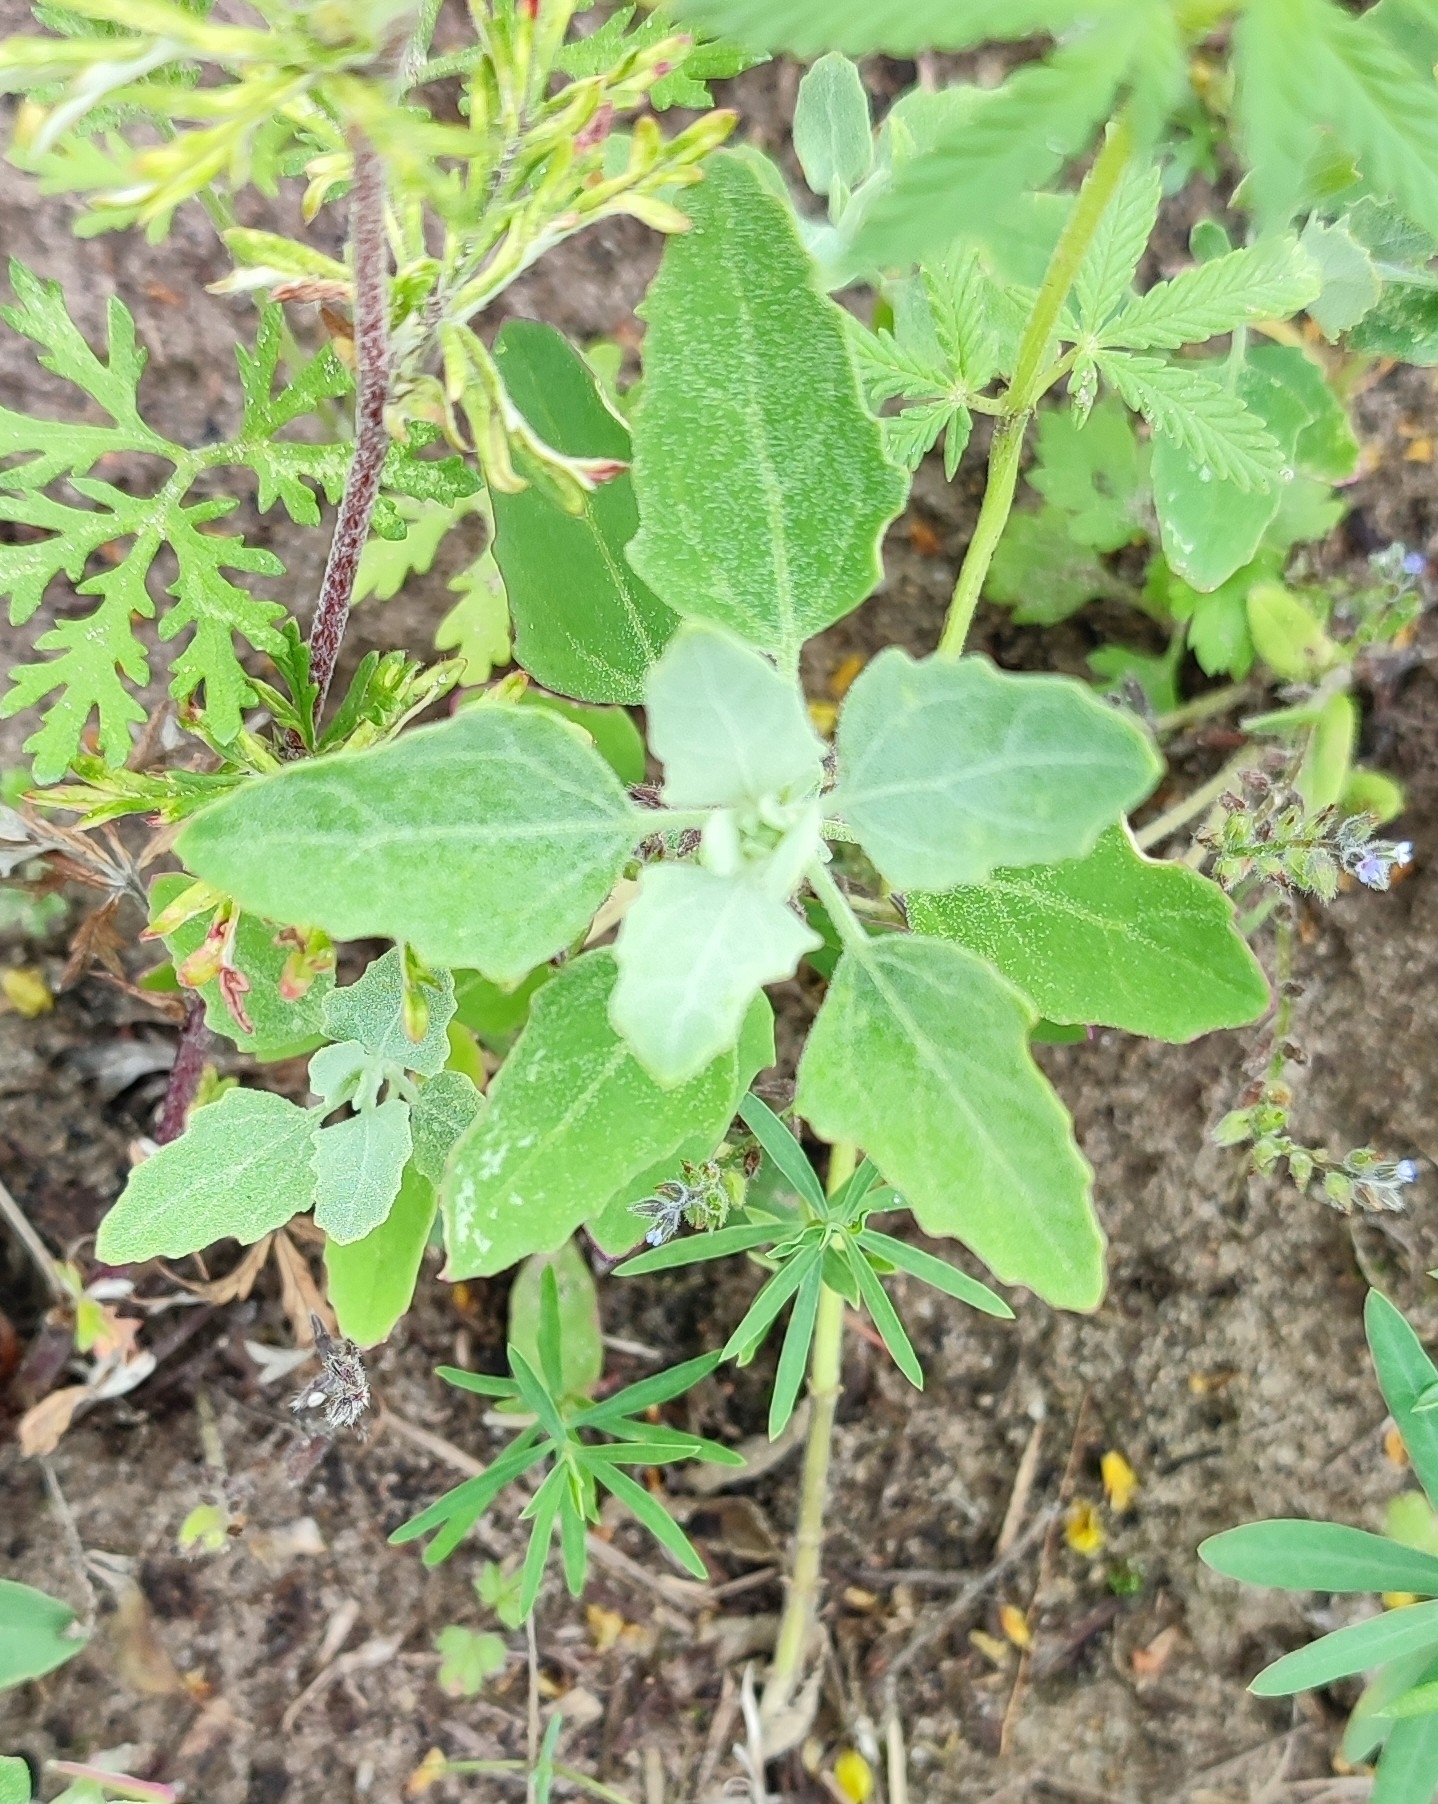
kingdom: Plantae
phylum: Tracheophyta
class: Magnoliopsida
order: Caryophyllales
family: Amaranthaceae
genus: Chenopodium
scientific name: Chenopodium album
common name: Fat-hen
